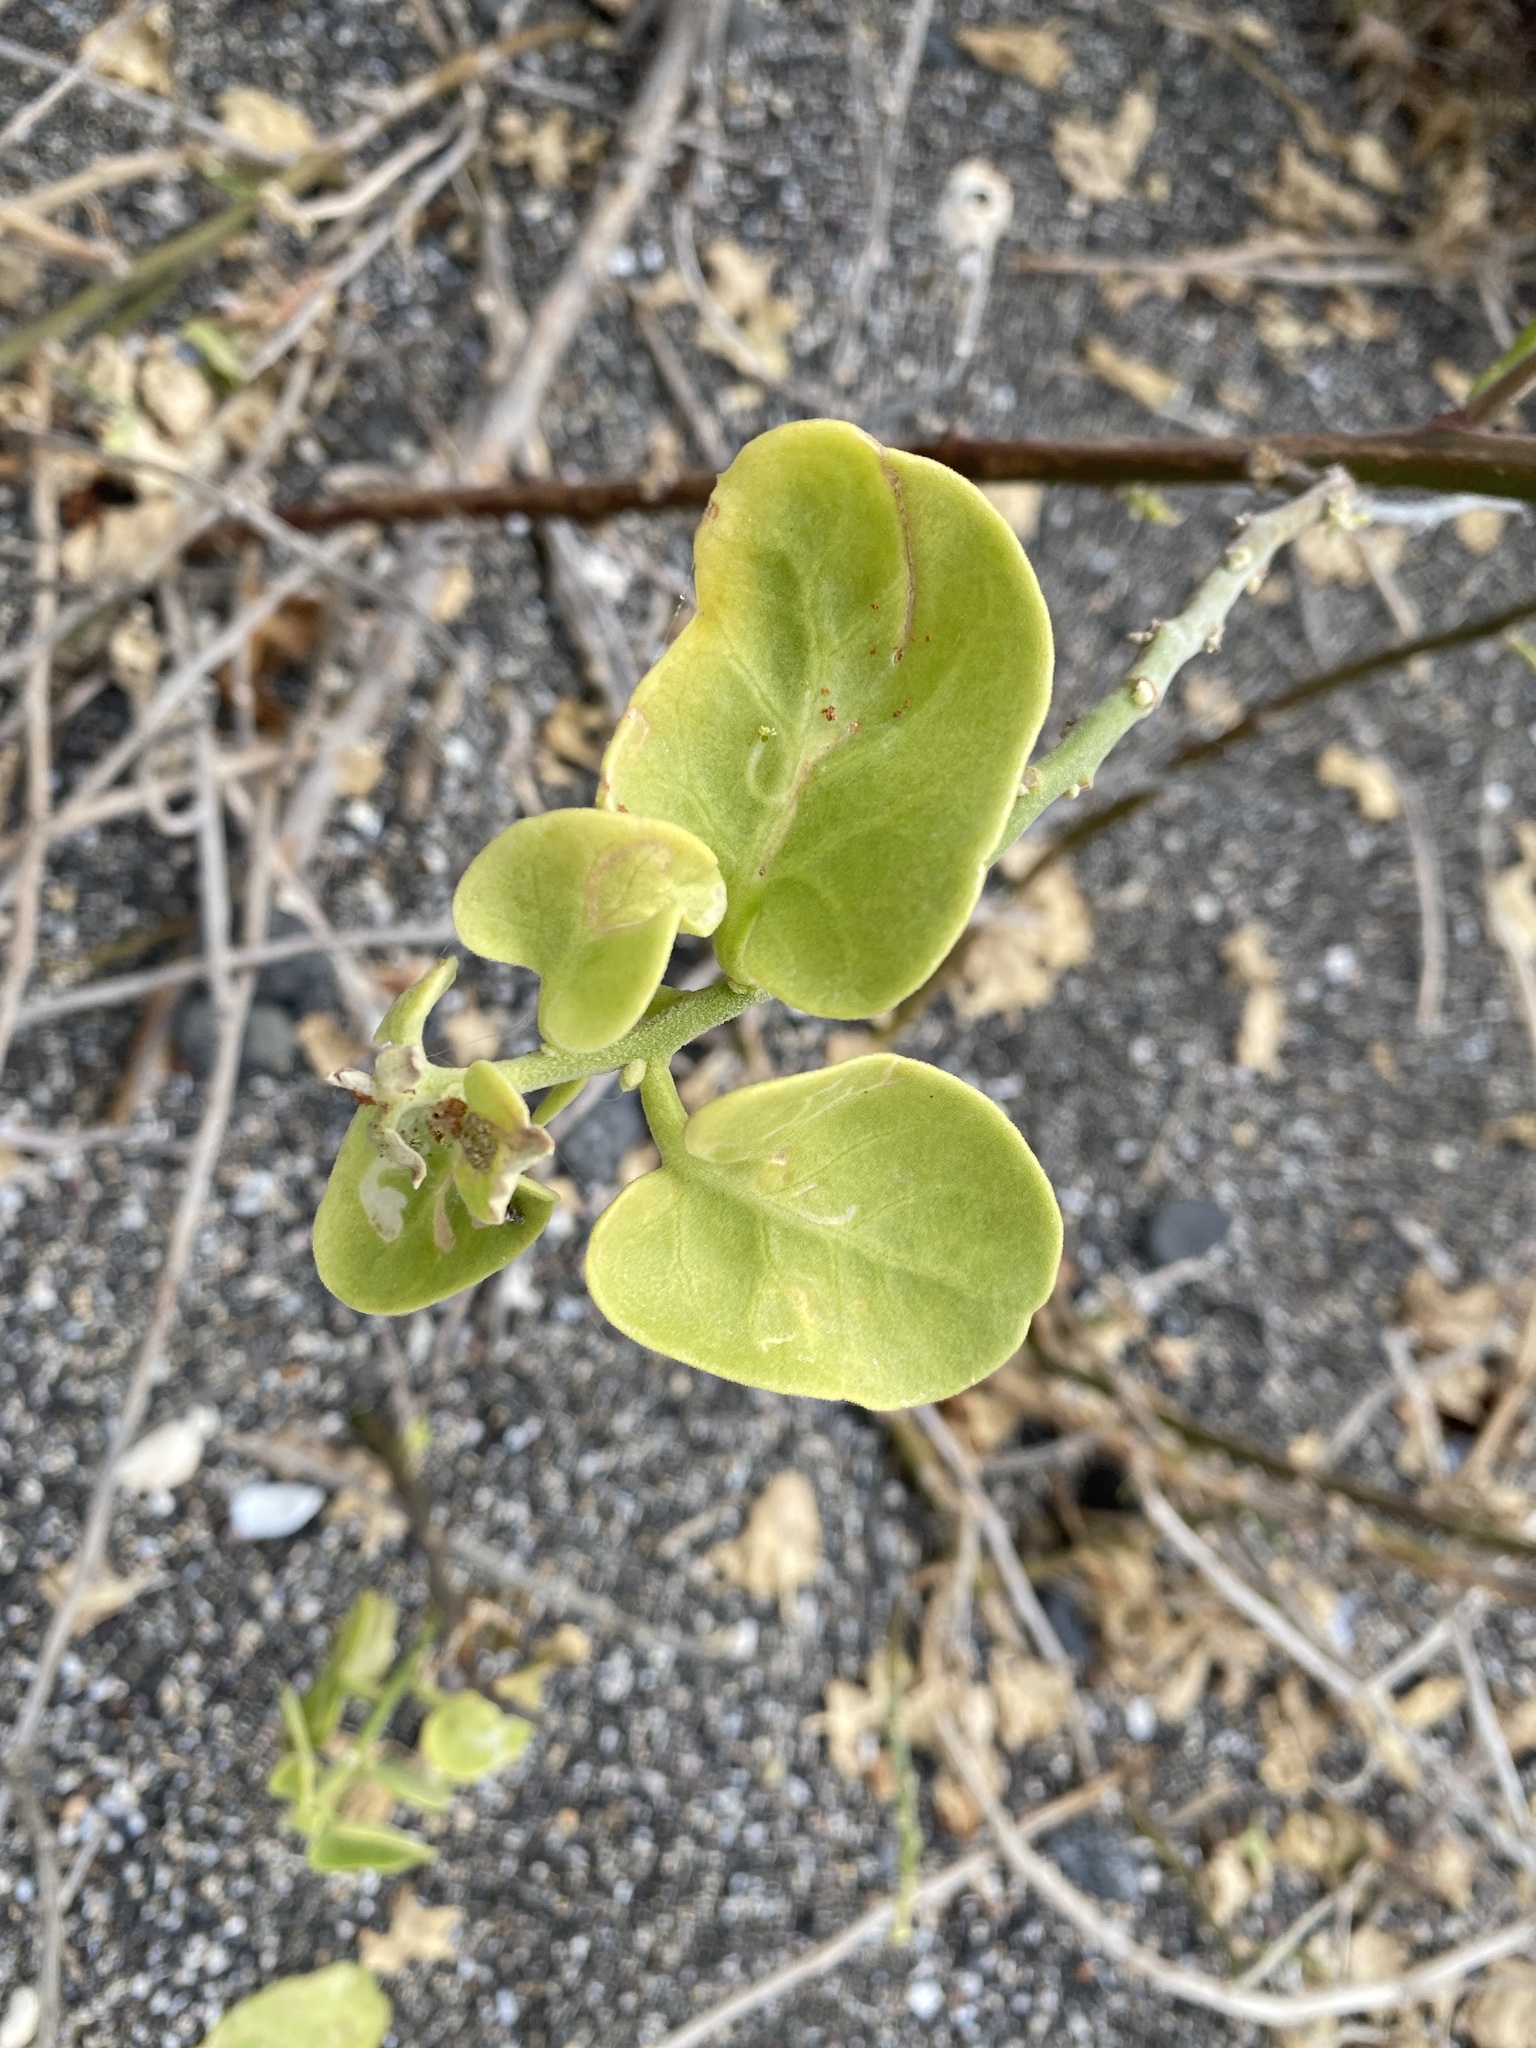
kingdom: Plantae
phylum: Tracheophyta
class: Magnoliopsida
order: Caryophyllales
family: Nyctaginaceae
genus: Cryptocarpus
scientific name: Cryptocarpus pyriformis
